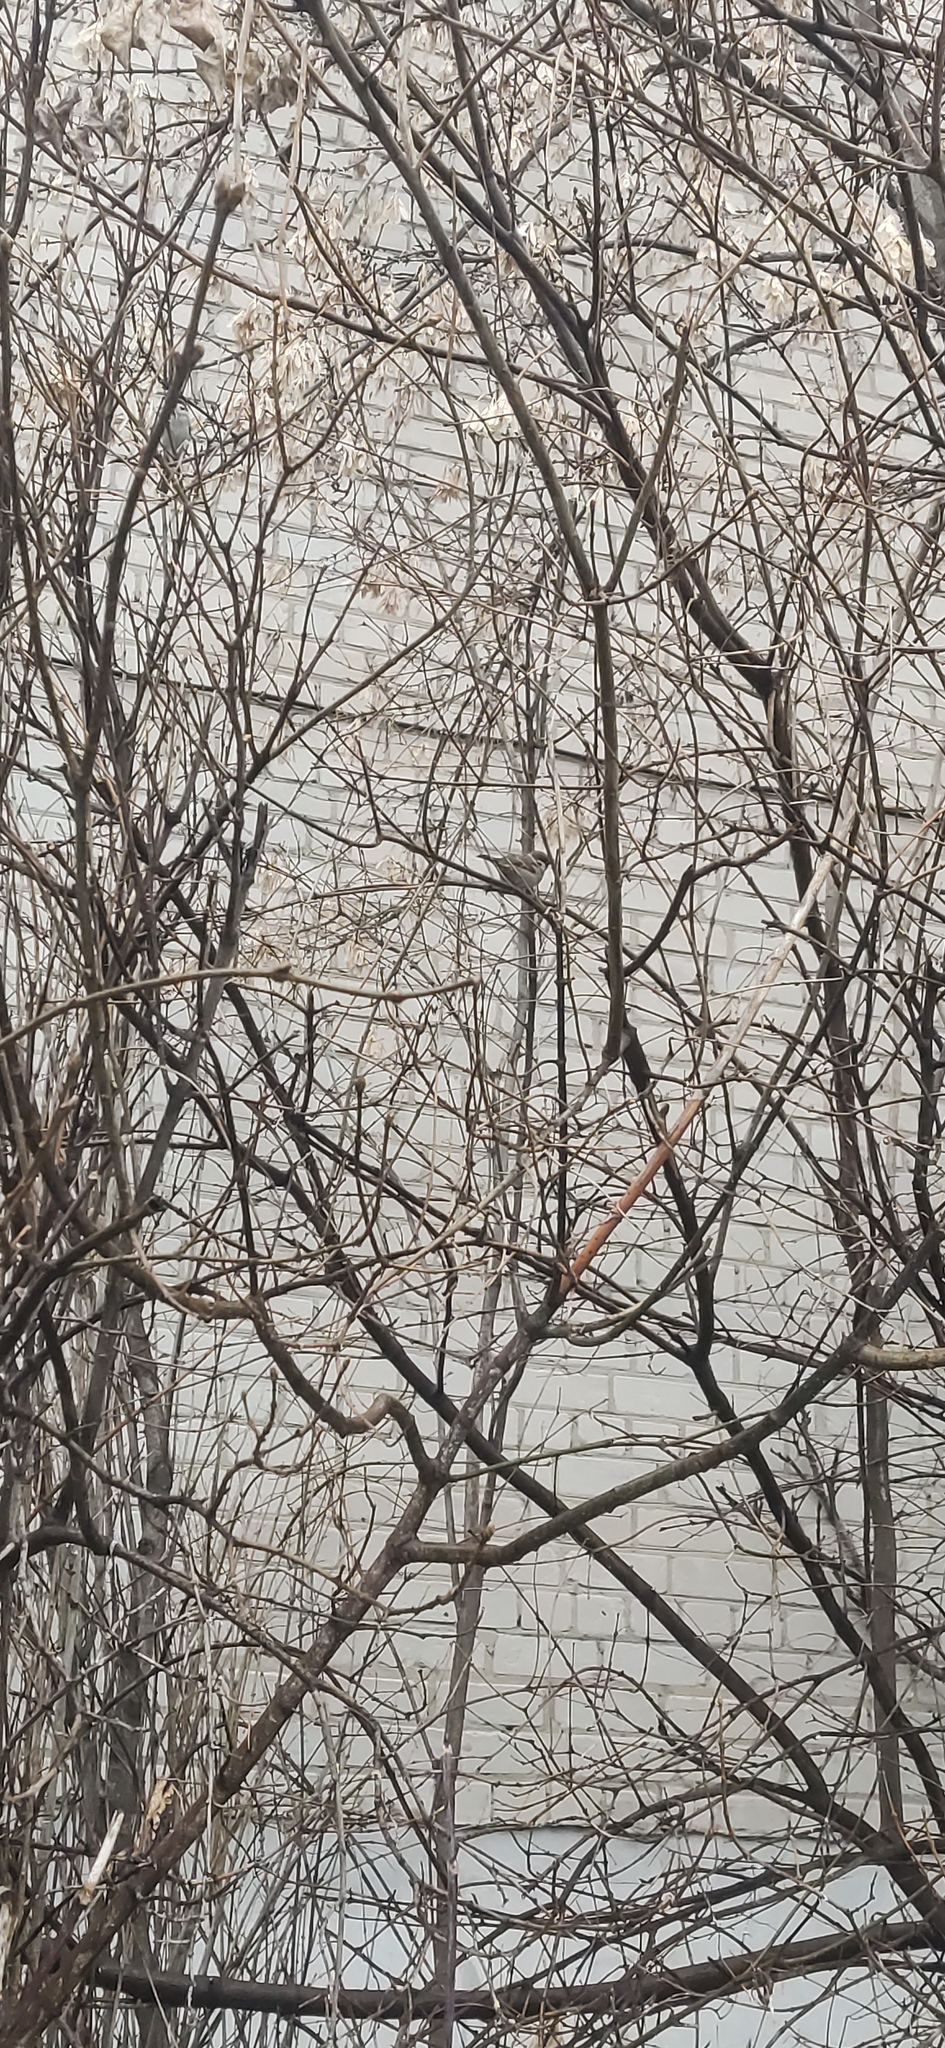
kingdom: Animalia
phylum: Chordata
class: Aves
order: Passeriformes
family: Passeridae
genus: Passer
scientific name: Passer montanus
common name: Eurasian tree sparrow
